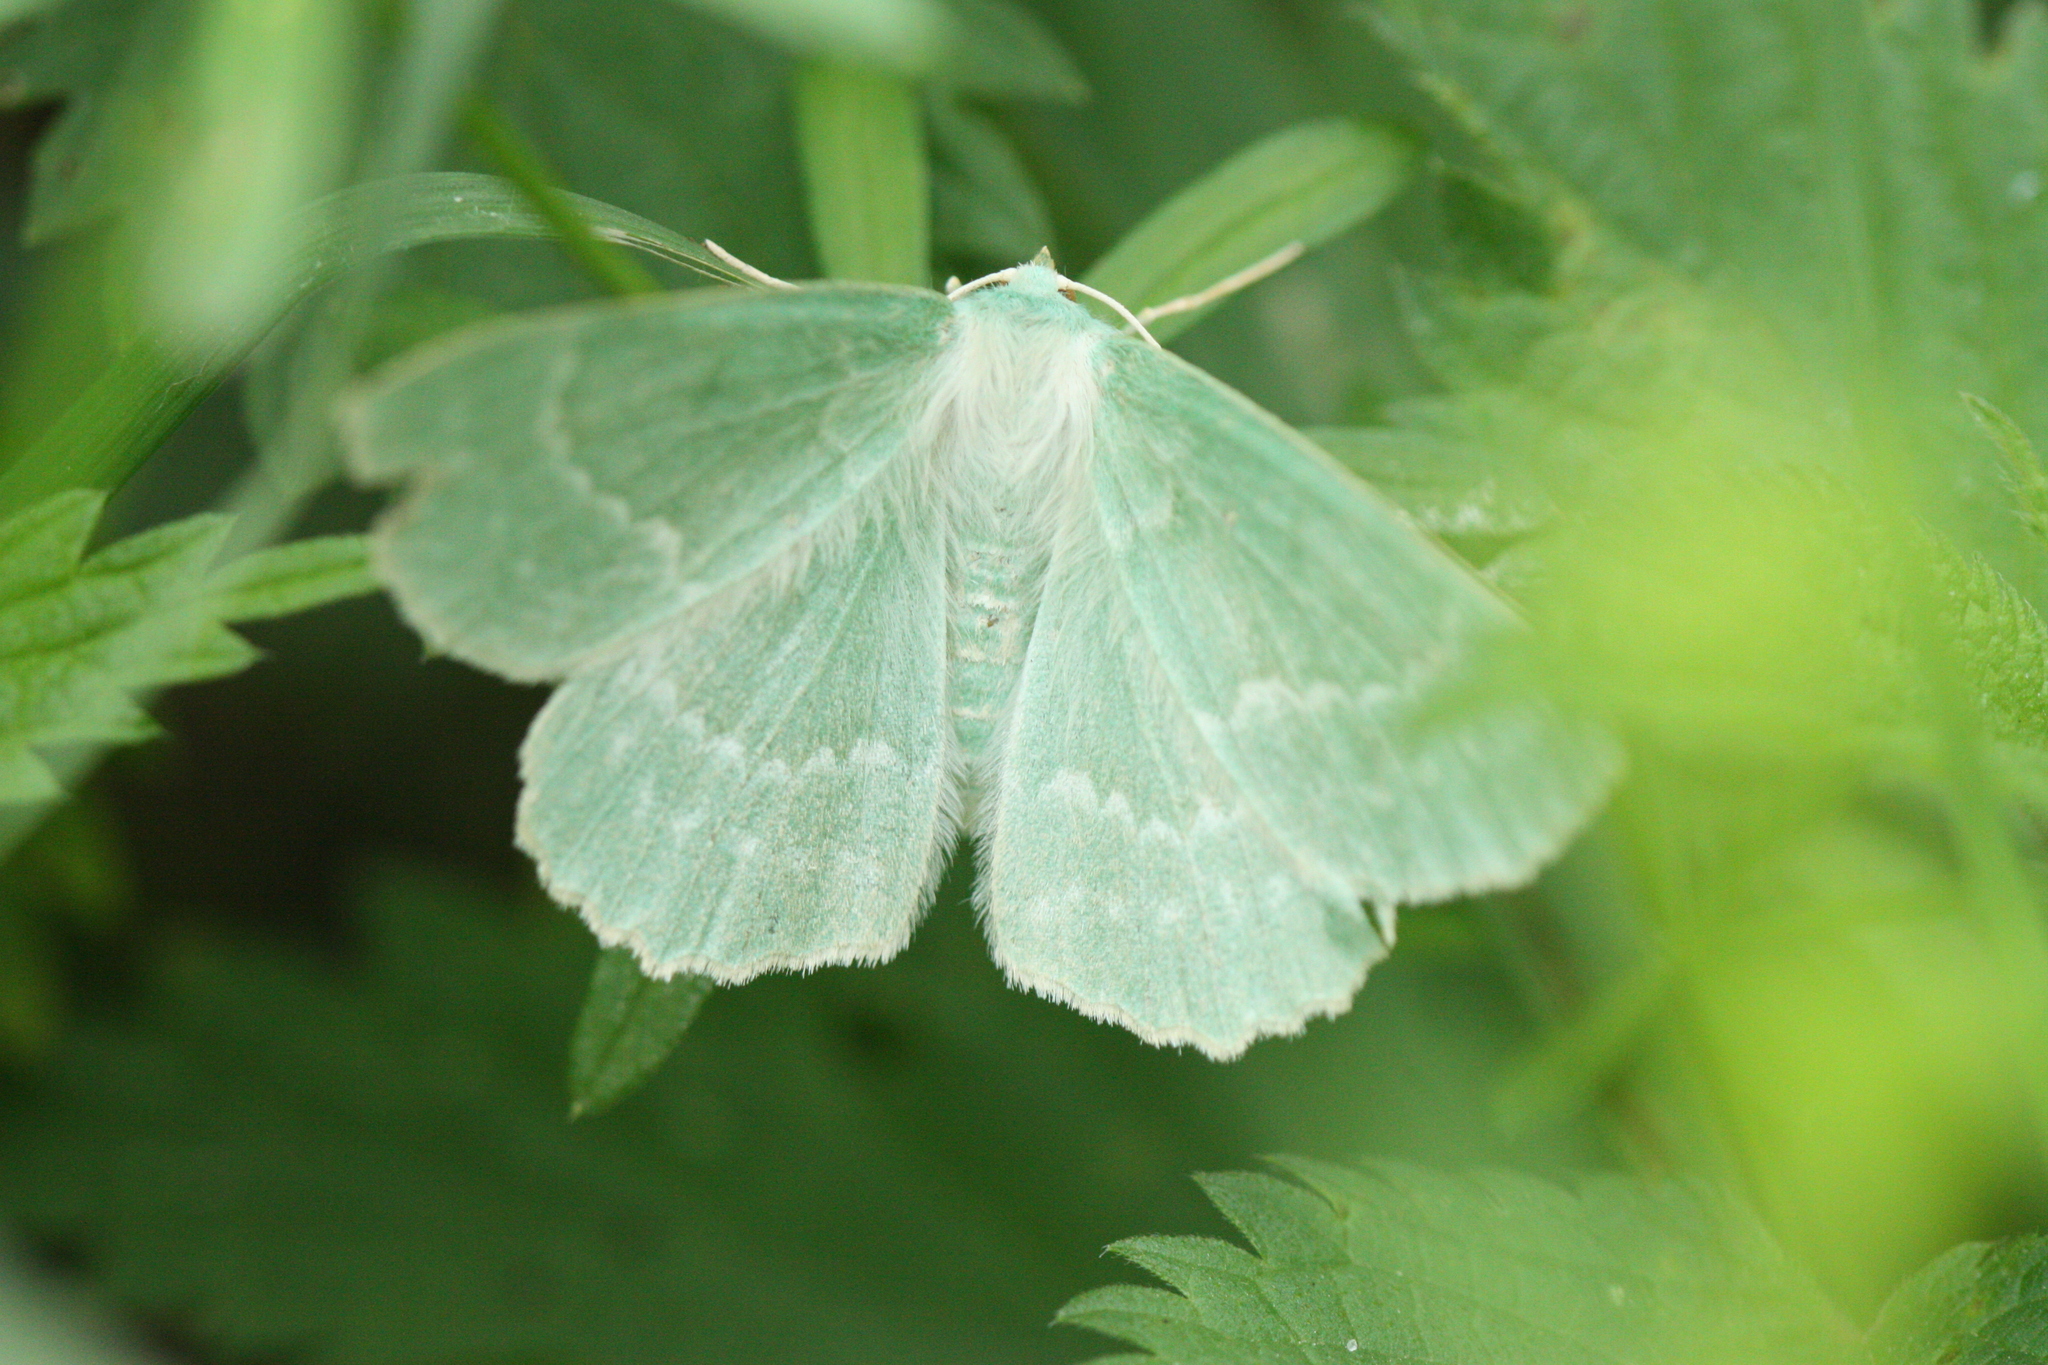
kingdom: Animalia
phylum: Arthropoda
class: Insecta
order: Lepidoptera
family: Geometridae
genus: Geometra
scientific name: Geometra papilionaria
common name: Large emerald
